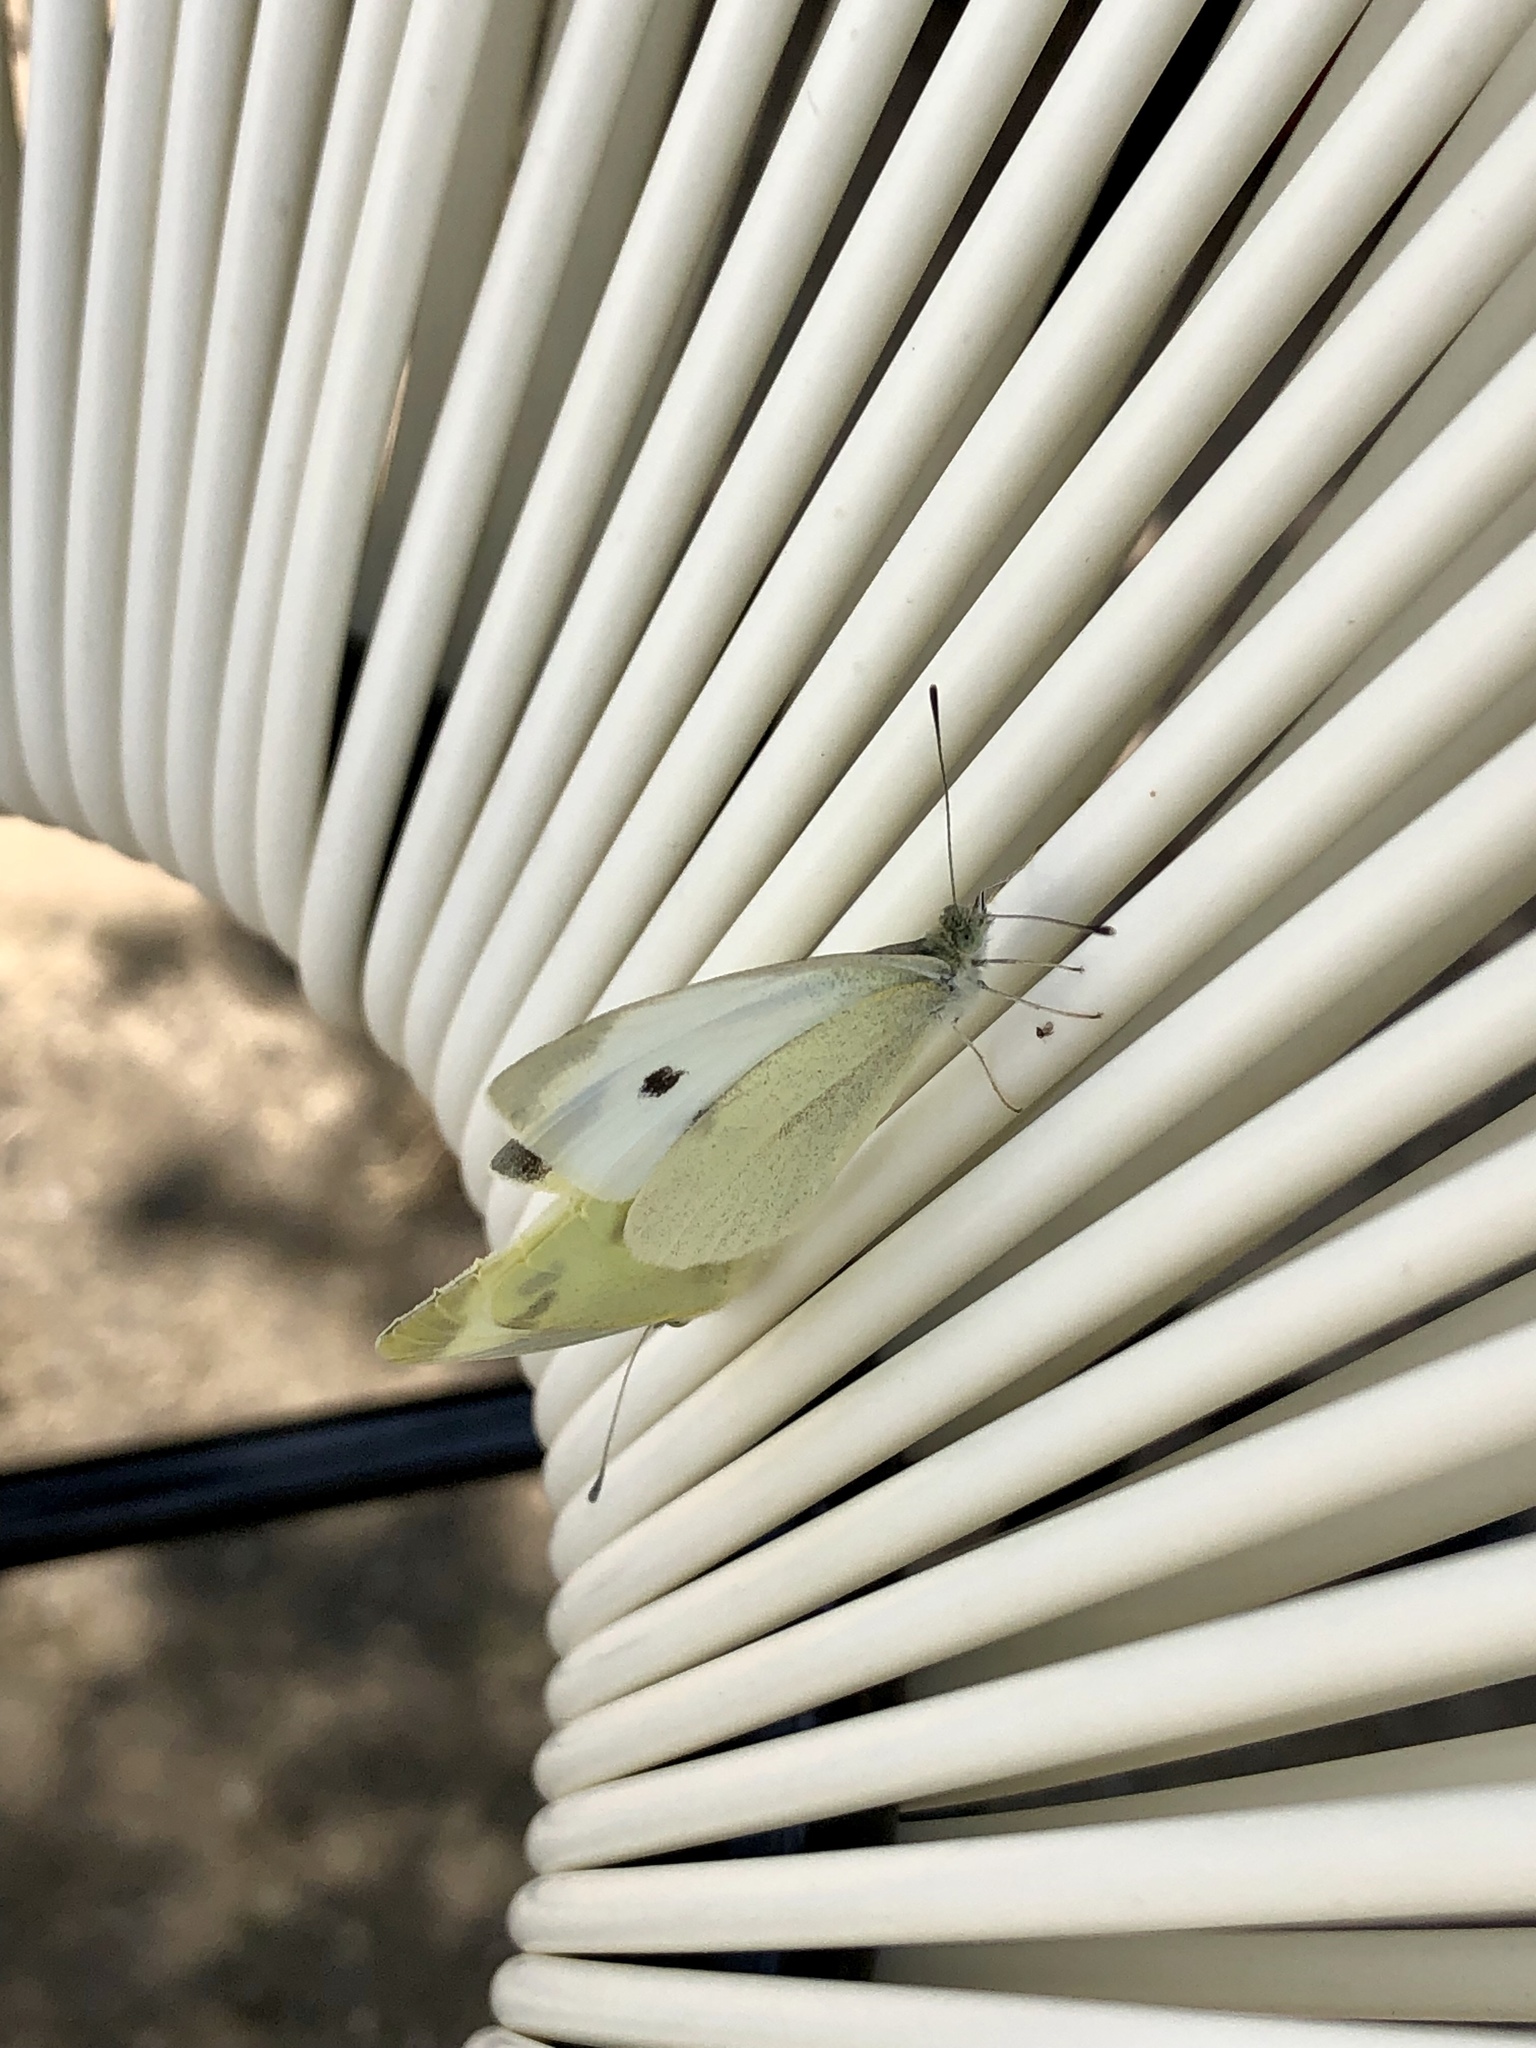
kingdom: Animalia
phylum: Arthropoda
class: Insecta
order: Lepidoptera
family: Pieridae
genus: Pieris
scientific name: Pieris rapae
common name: Small white
